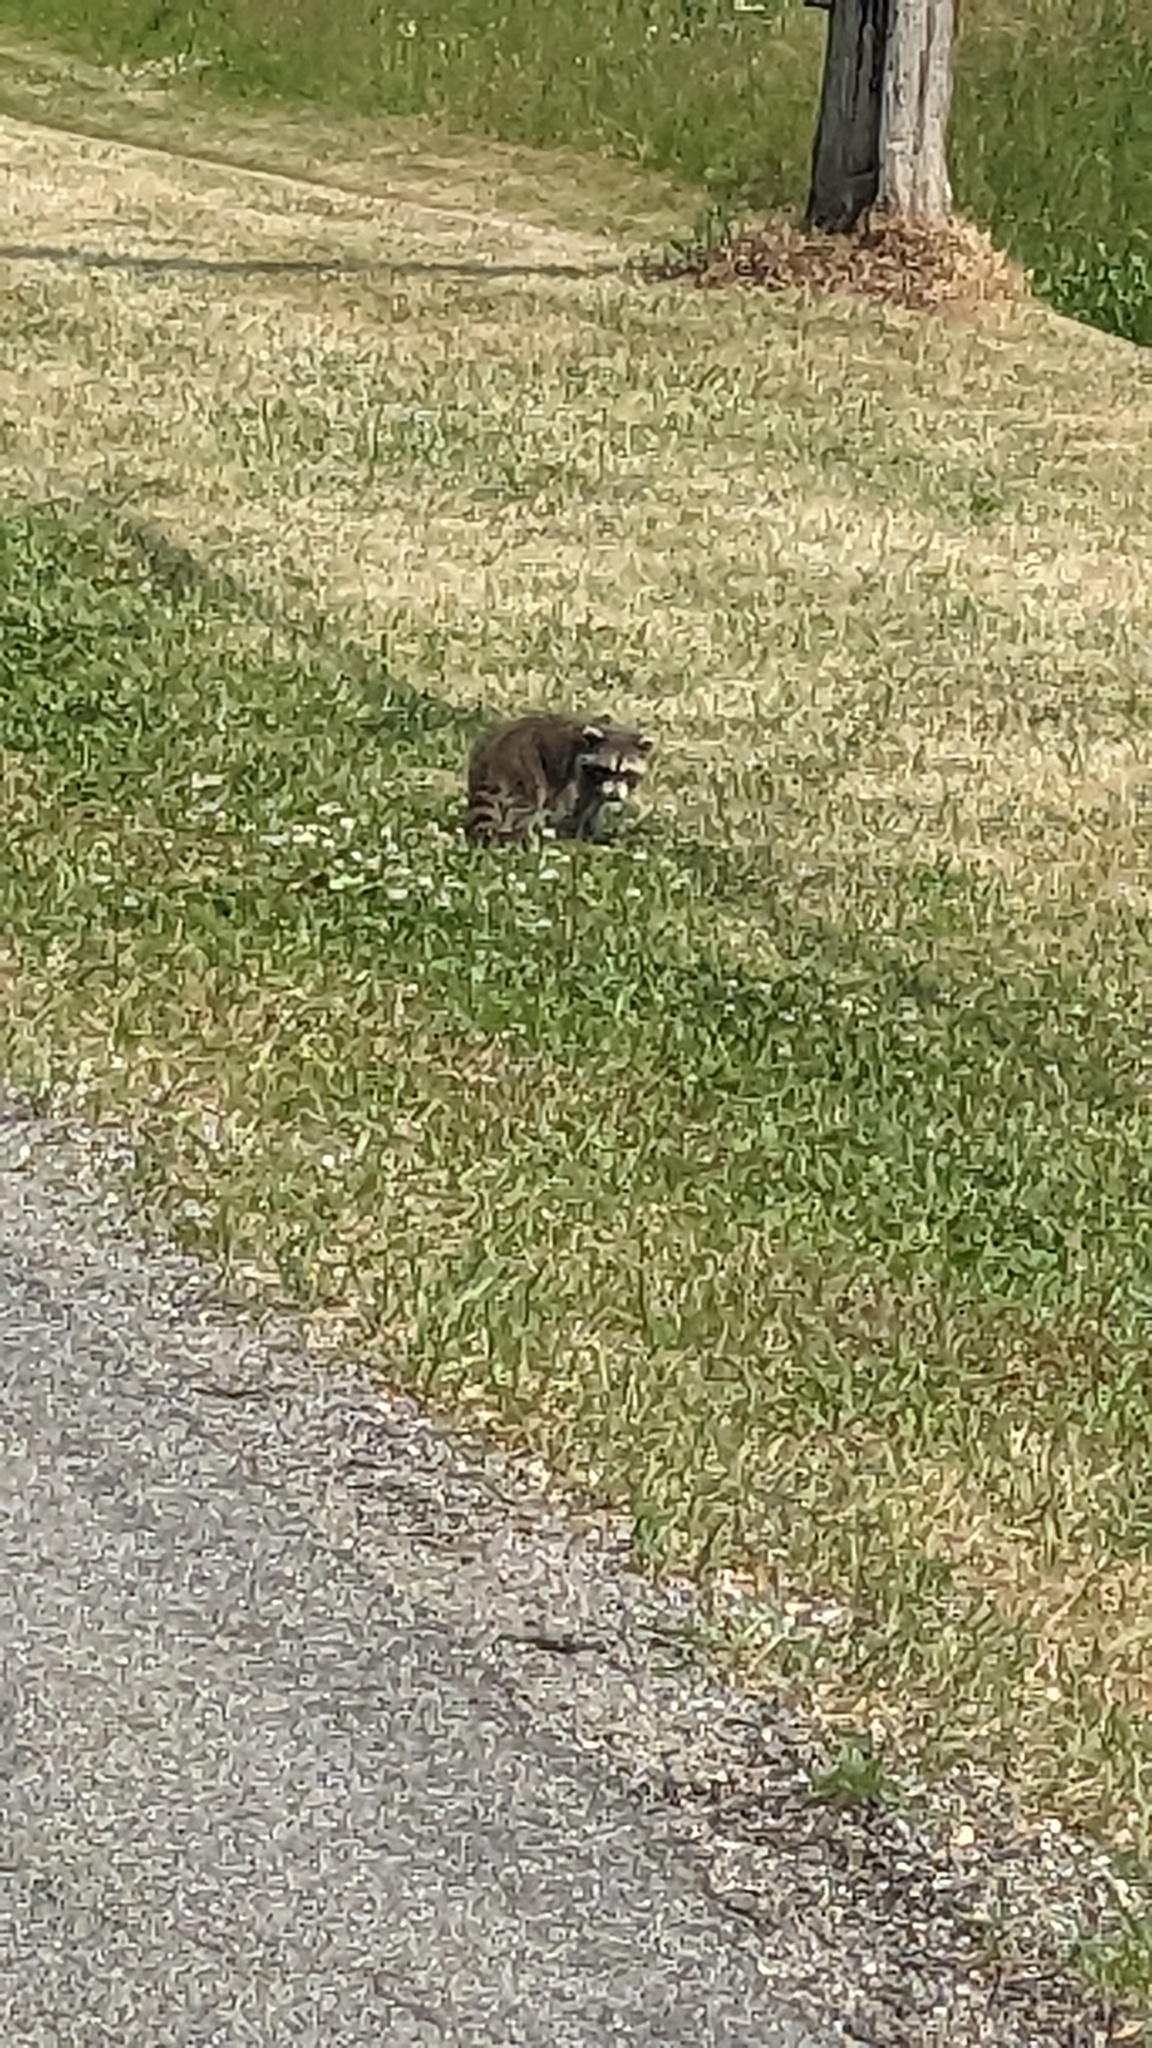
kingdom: Animalia
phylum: Chordata
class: Mammalia
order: Carnivora
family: Procyonidae
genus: Procyon
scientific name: Procyon lotor
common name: Raccoon
